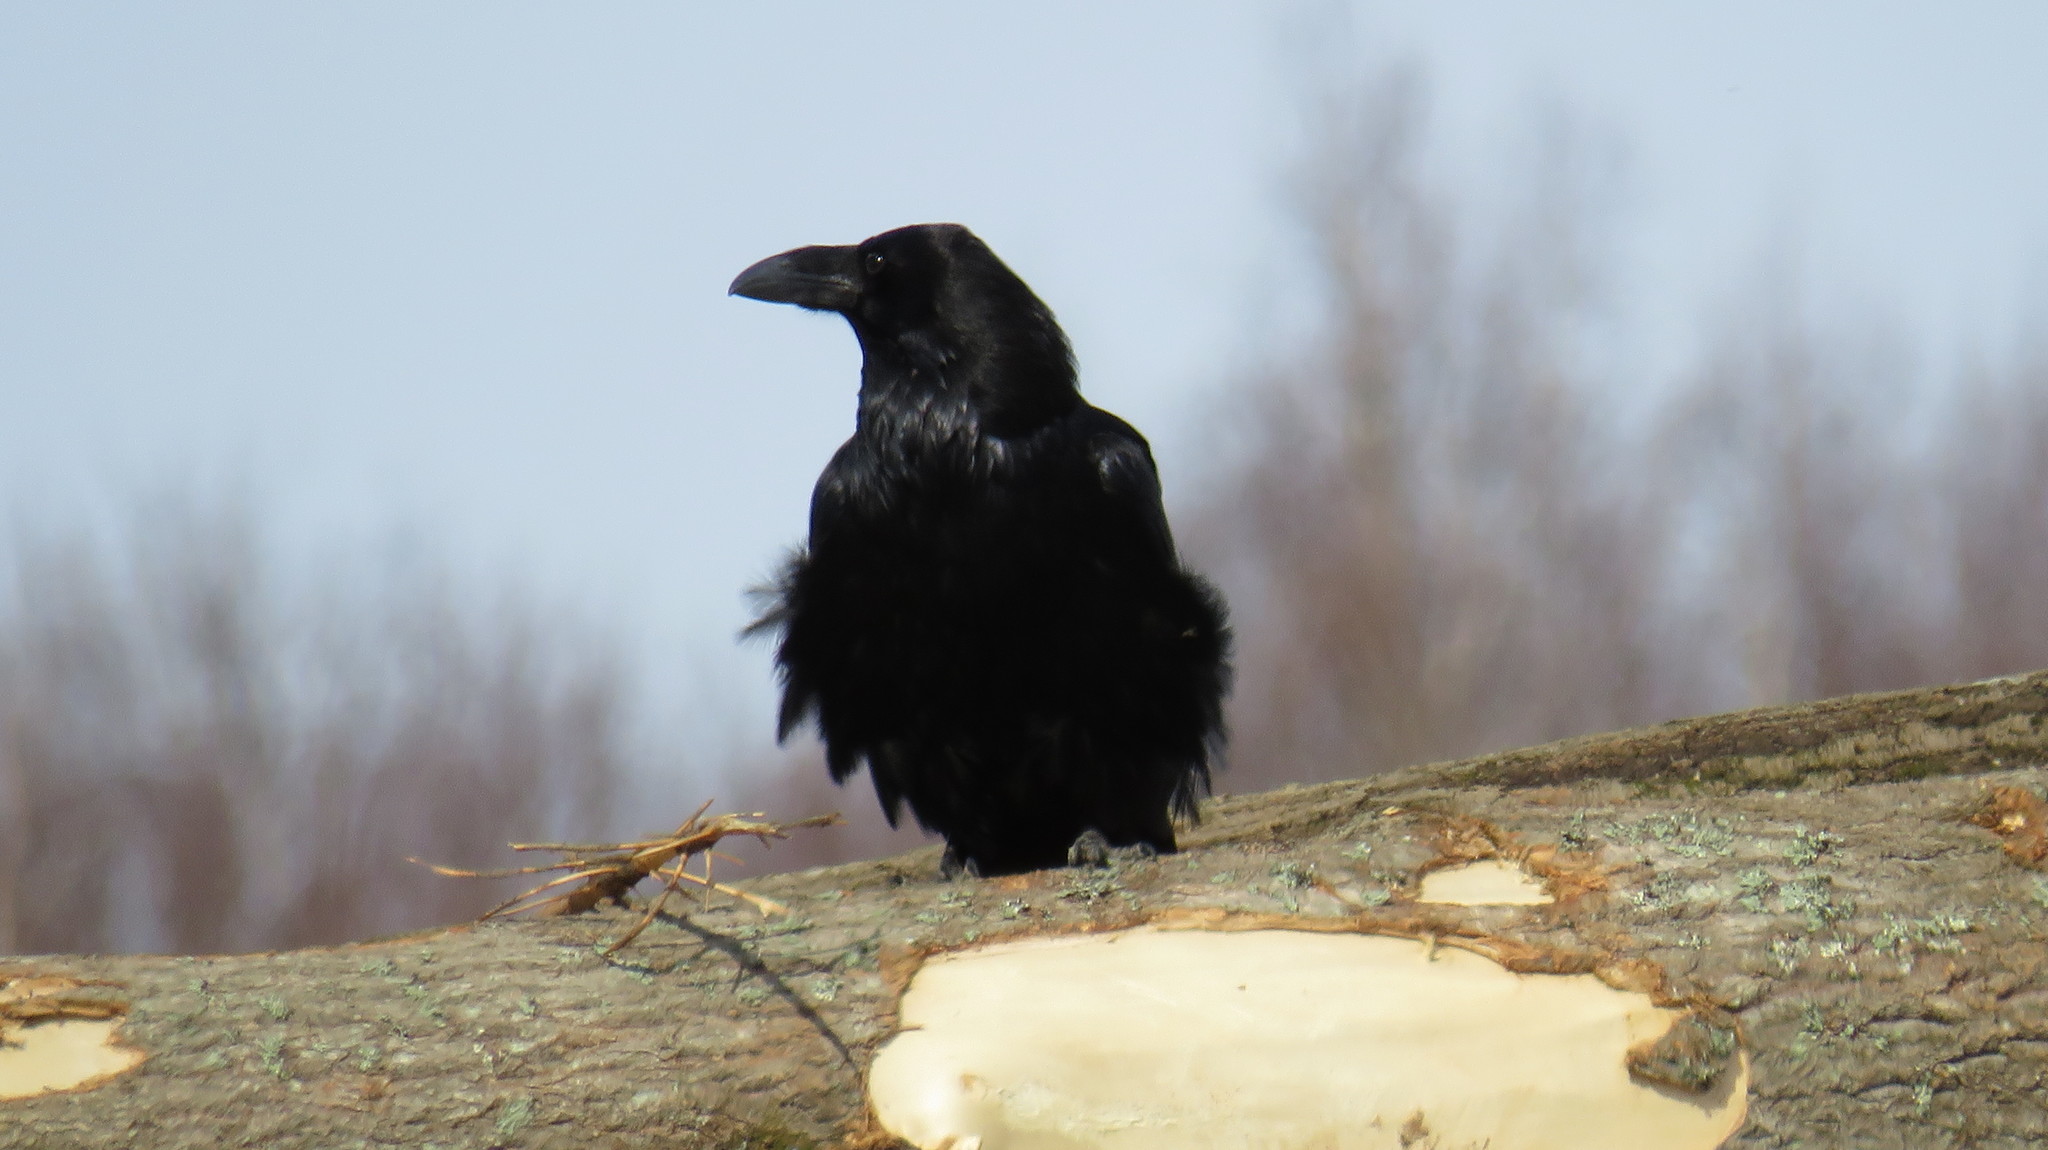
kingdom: Animalia
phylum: Chordata
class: Aves
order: Passeriformes
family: Corvidae
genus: Corvus
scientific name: Corvus corax
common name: Common raven
